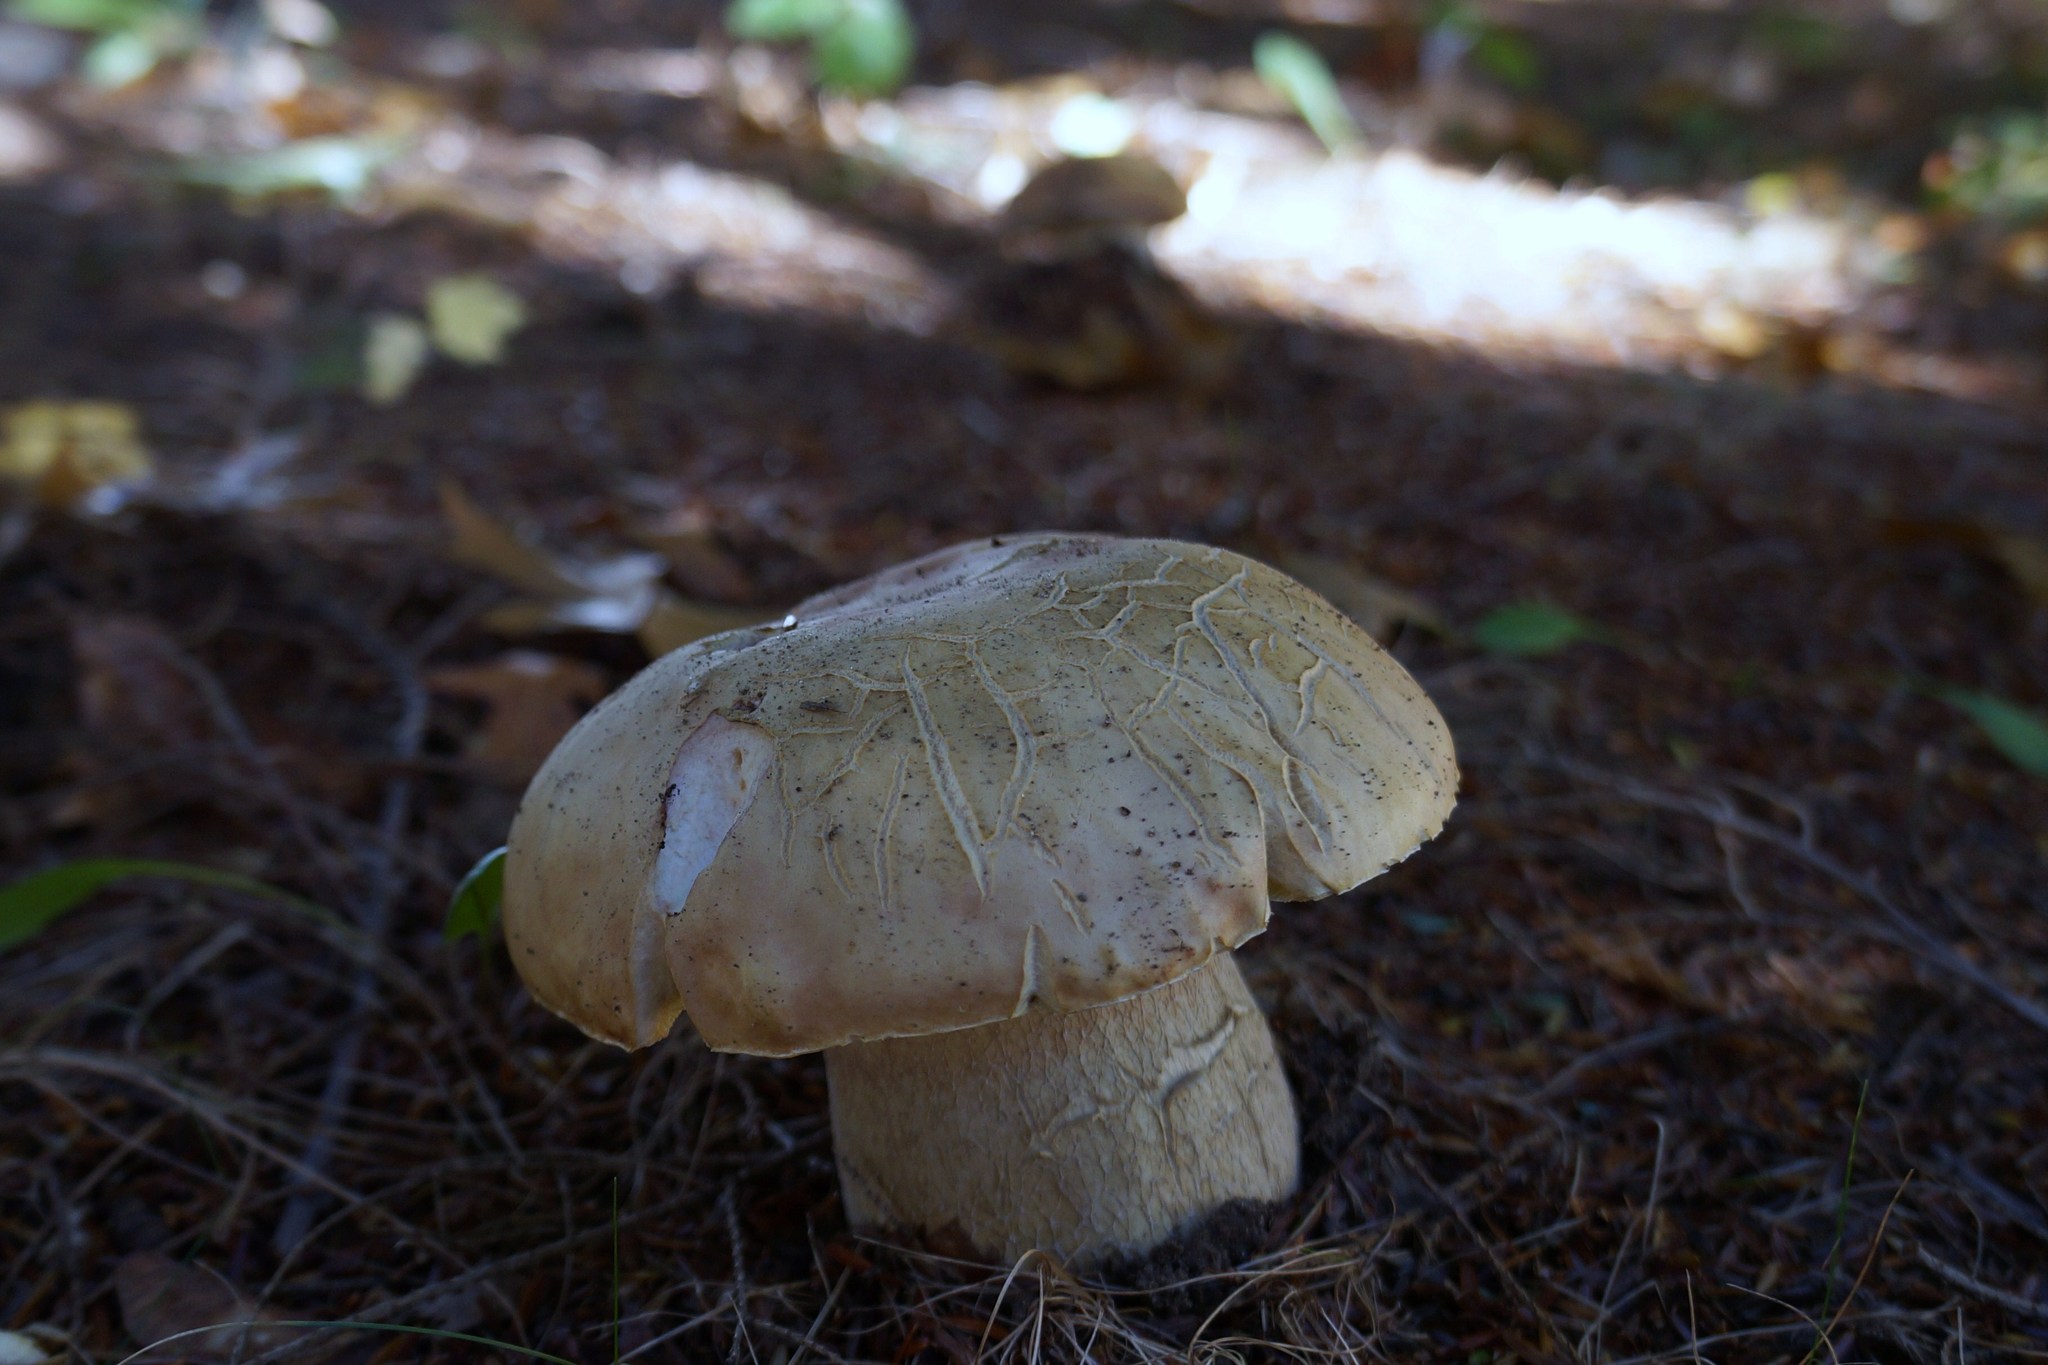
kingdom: Fungi
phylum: Basidiomycota
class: Agaricomycetes
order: Boletales
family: Boletaceae
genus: Boletus
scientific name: Boletus chippewaensis
